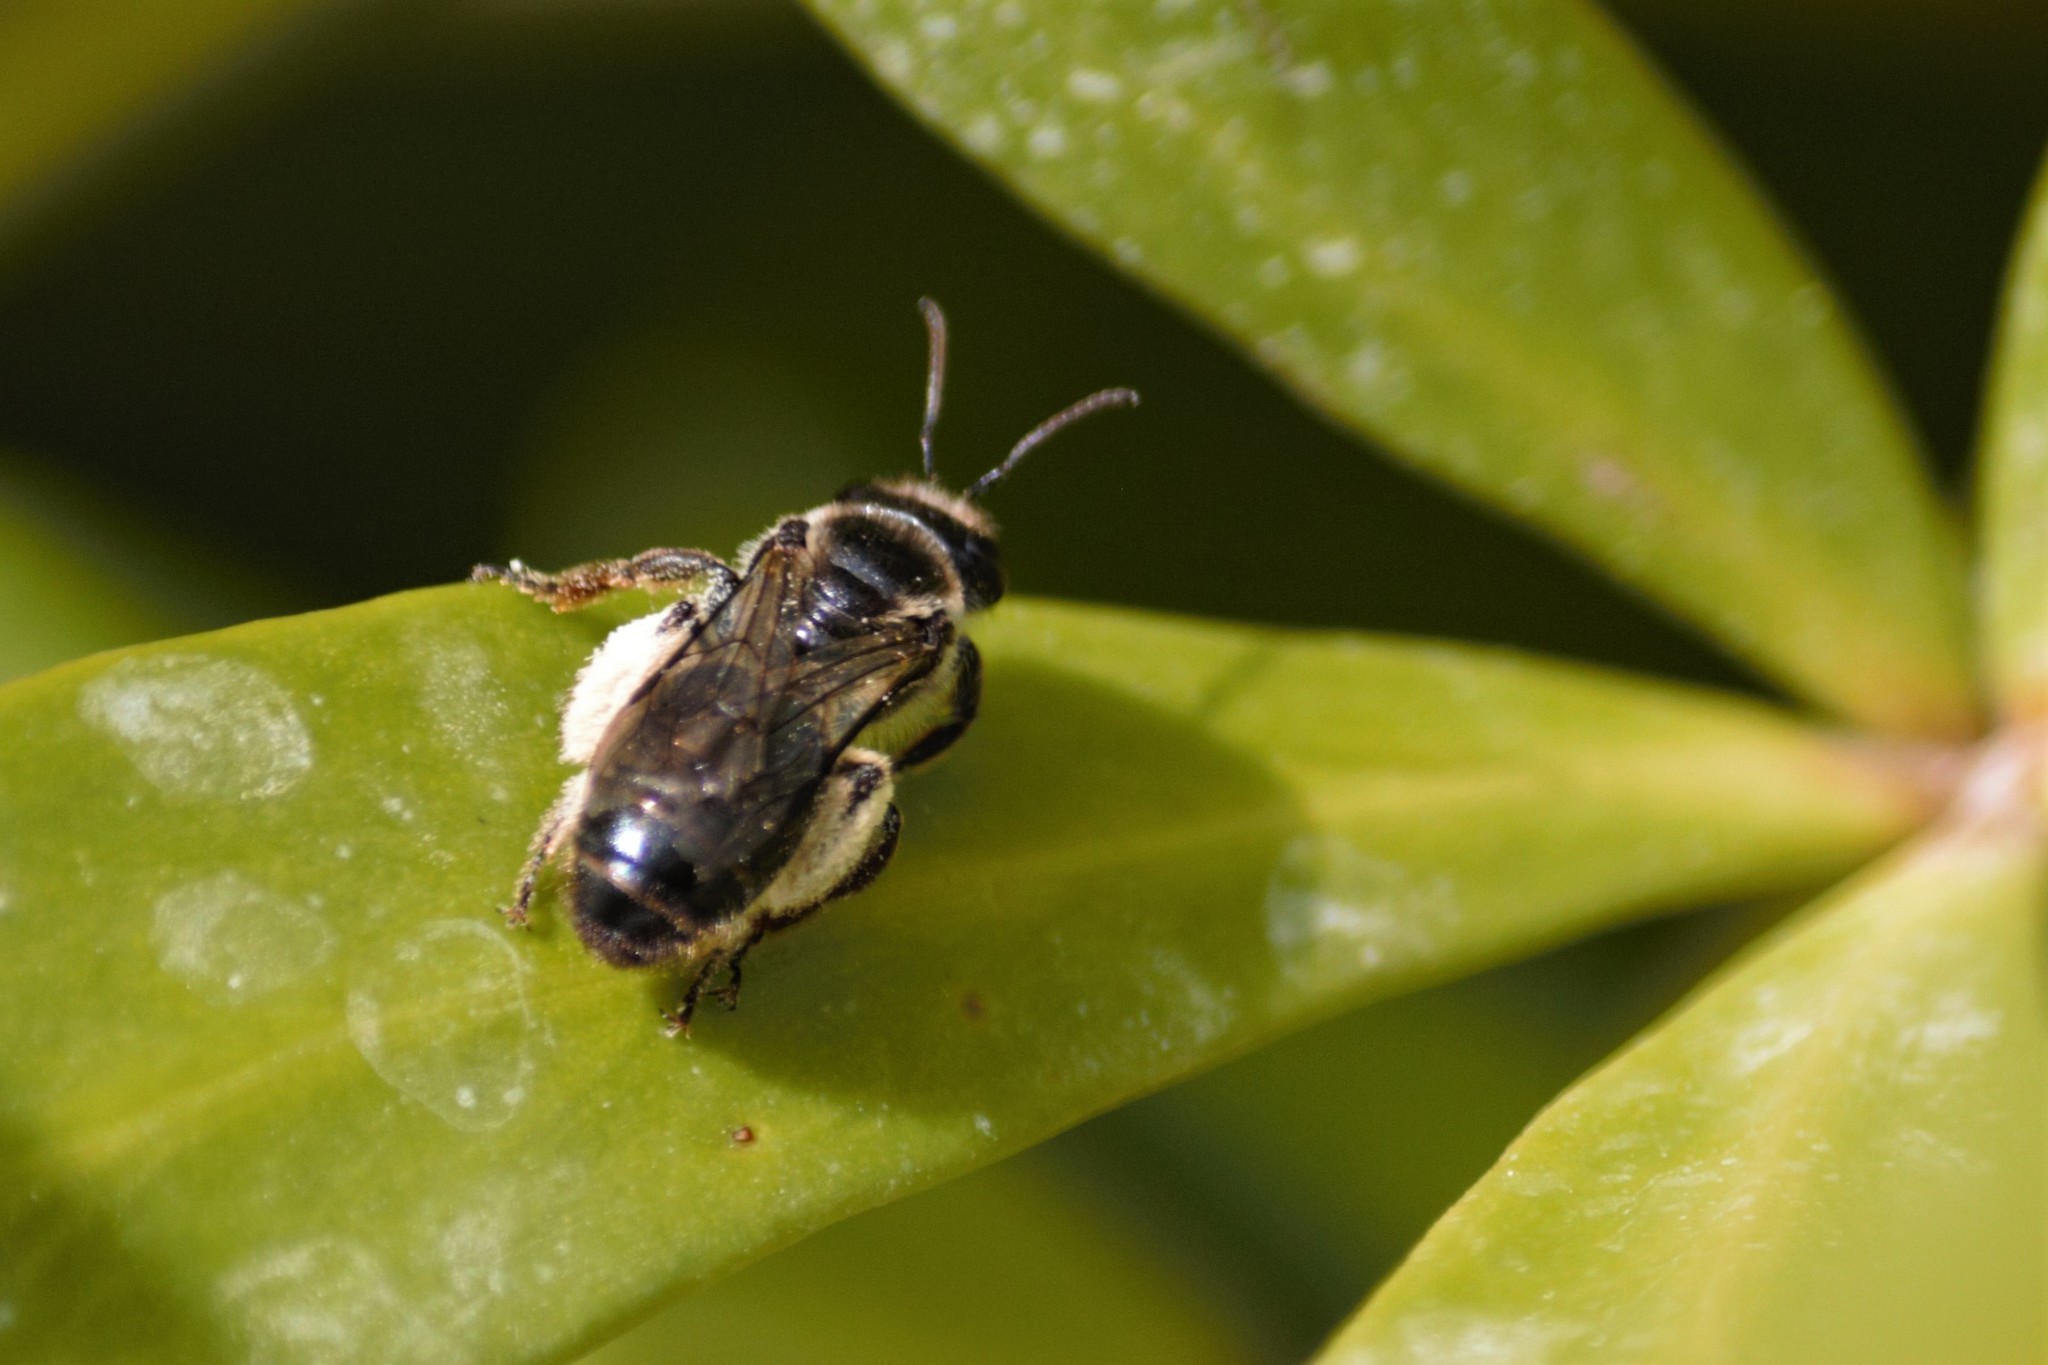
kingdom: Animalia
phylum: Arthropoda
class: Insecta
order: Hymenoptera
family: Colletidae
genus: Leioproctus
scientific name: Leioproctus
